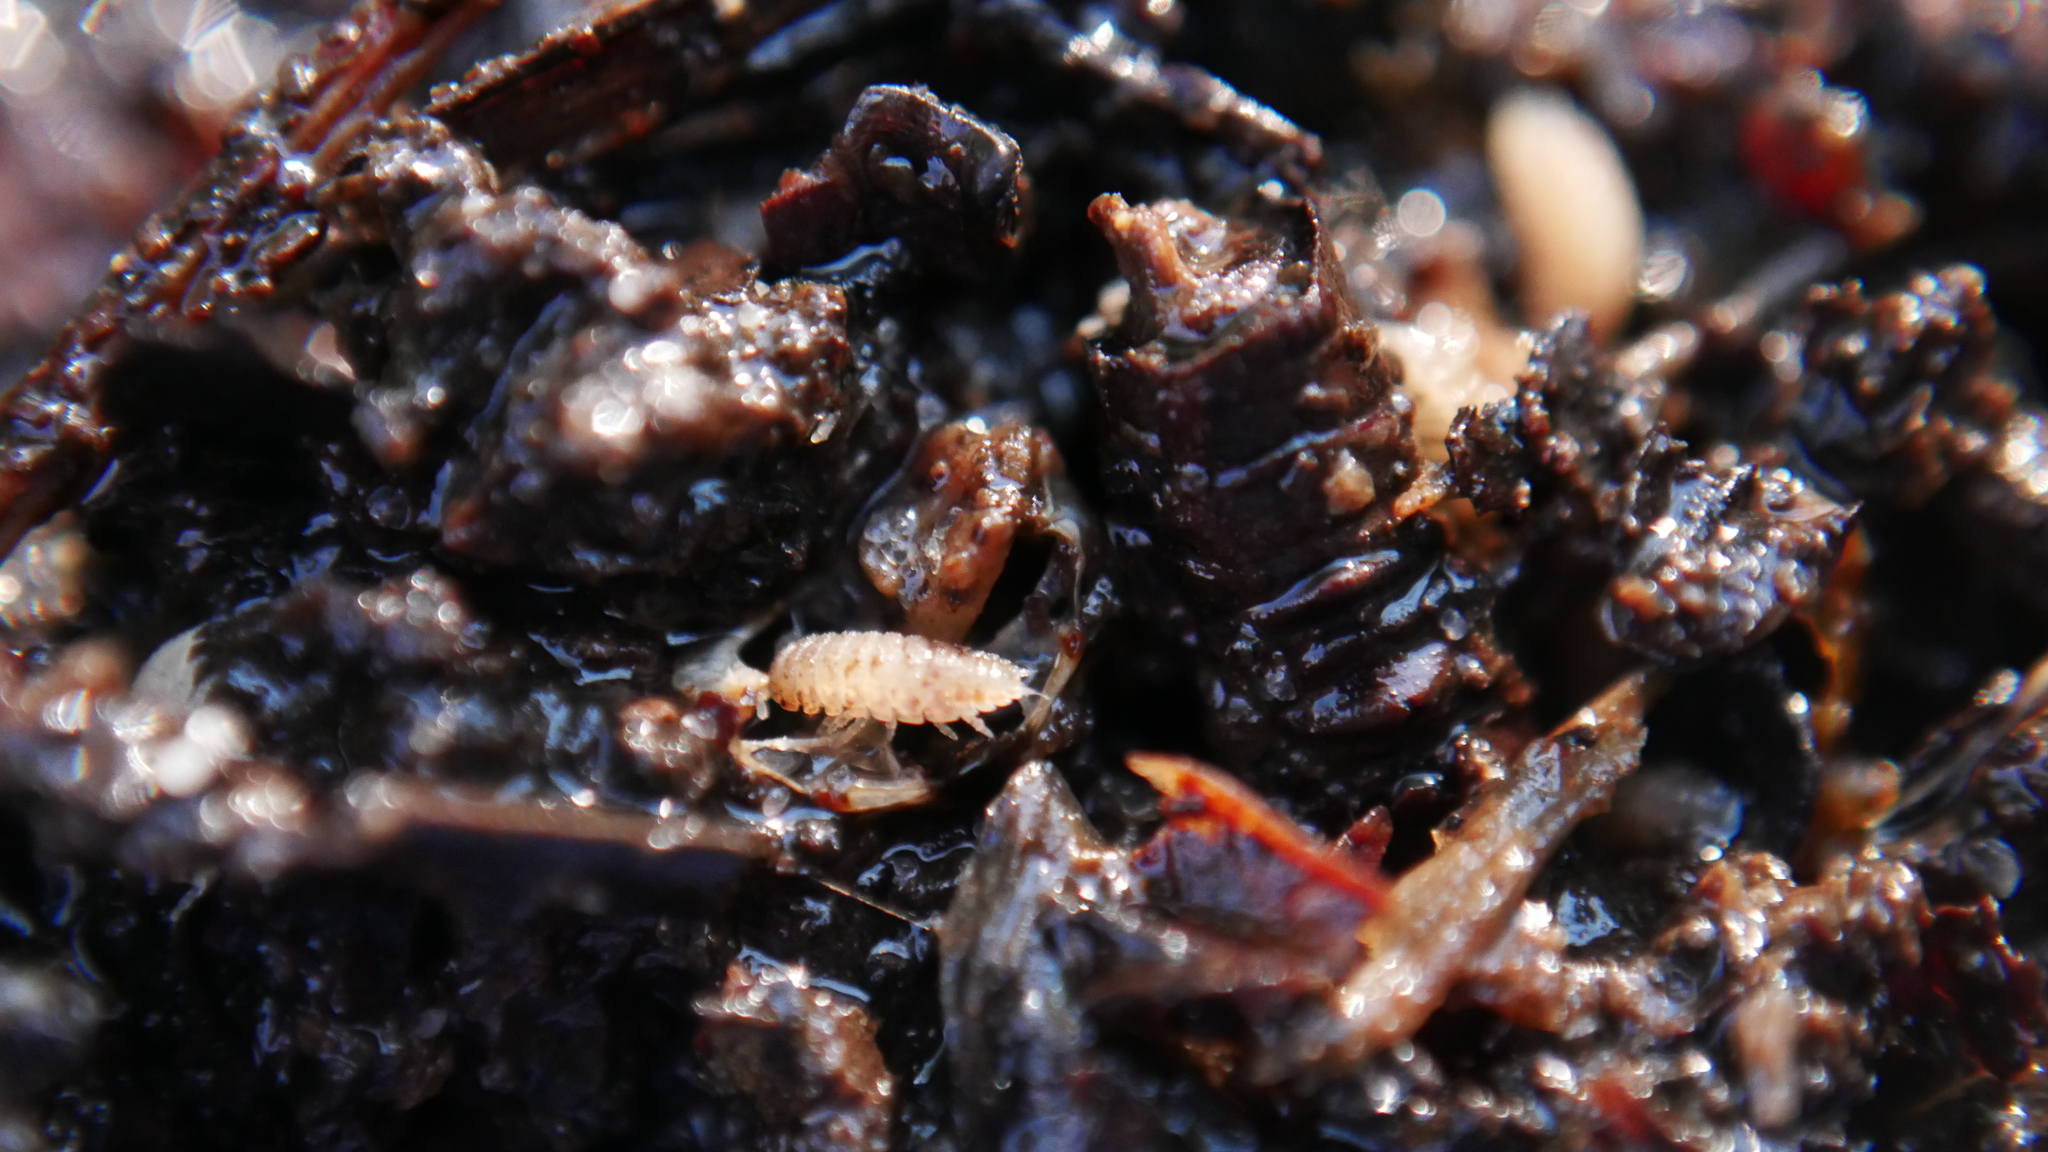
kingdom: Animalia
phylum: Arthropoda
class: Malacostraca
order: Isopoda
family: Trichoniscidae
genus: Haplophthalmus
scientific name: Haplophthalmus danicus
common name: Pillbug
